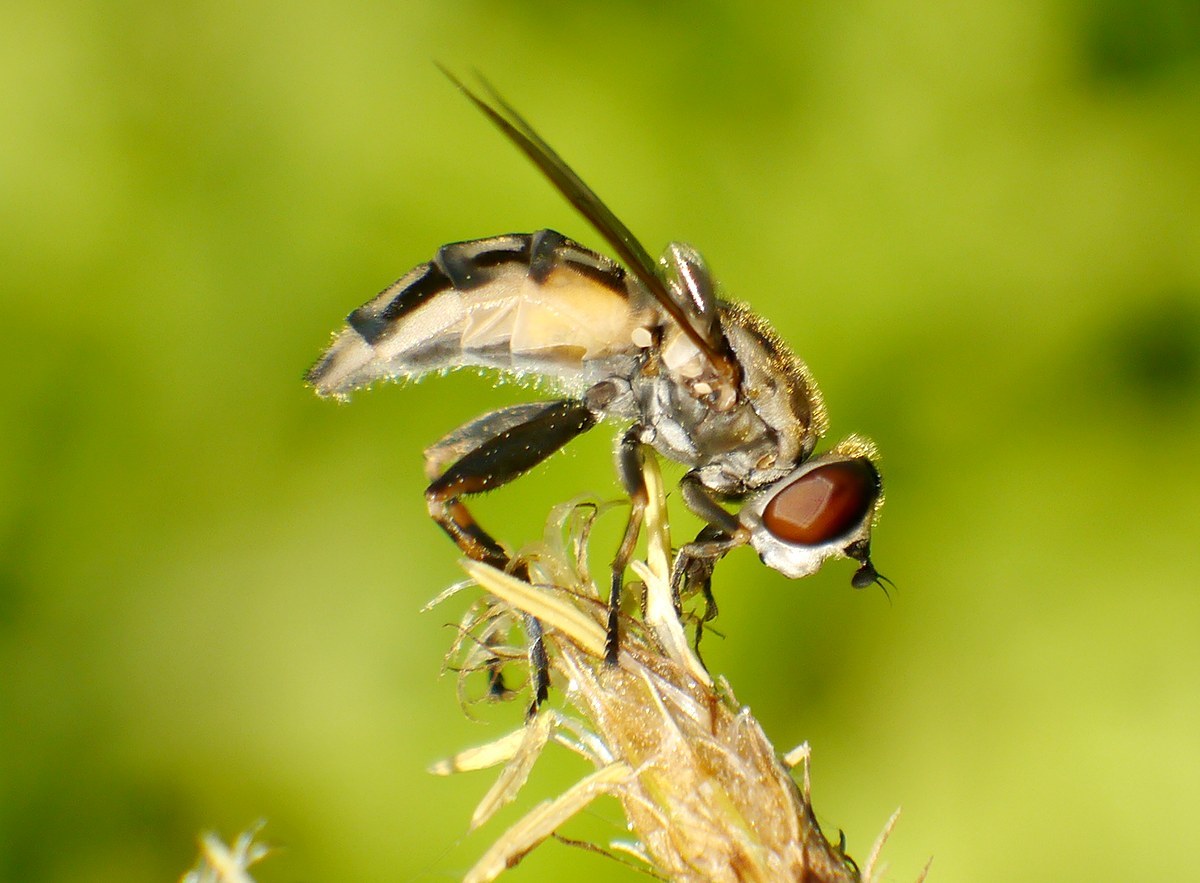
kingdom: Animalia
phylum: Arthropoda
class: Insecta
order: Diptera
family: Syrphidae
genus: Lejops
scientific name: Lejops vittatus
